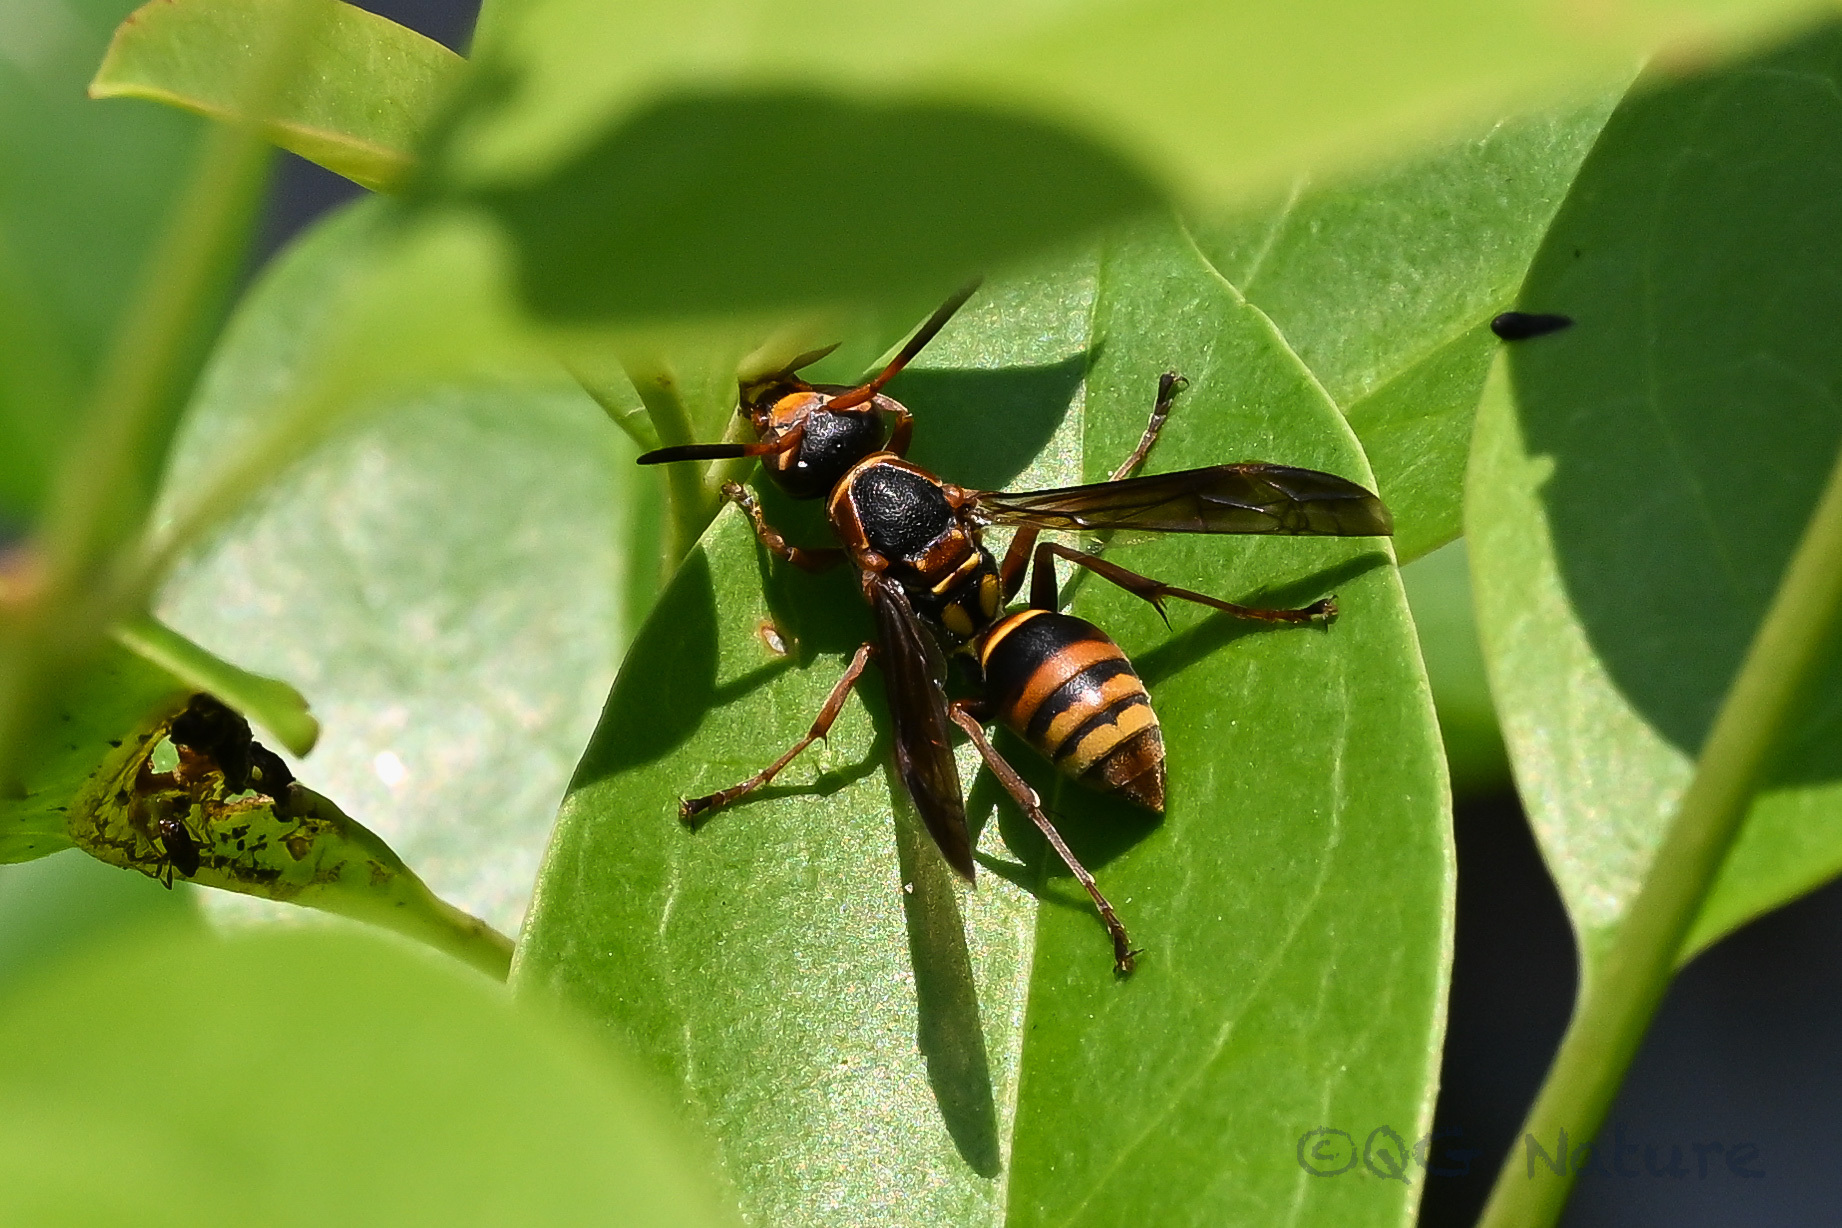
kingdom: Animalia
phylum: Arthropoda
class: Insecta
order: Hymenoptera
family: Eumenidae
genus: Polistes
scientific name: Polistes snelleni
